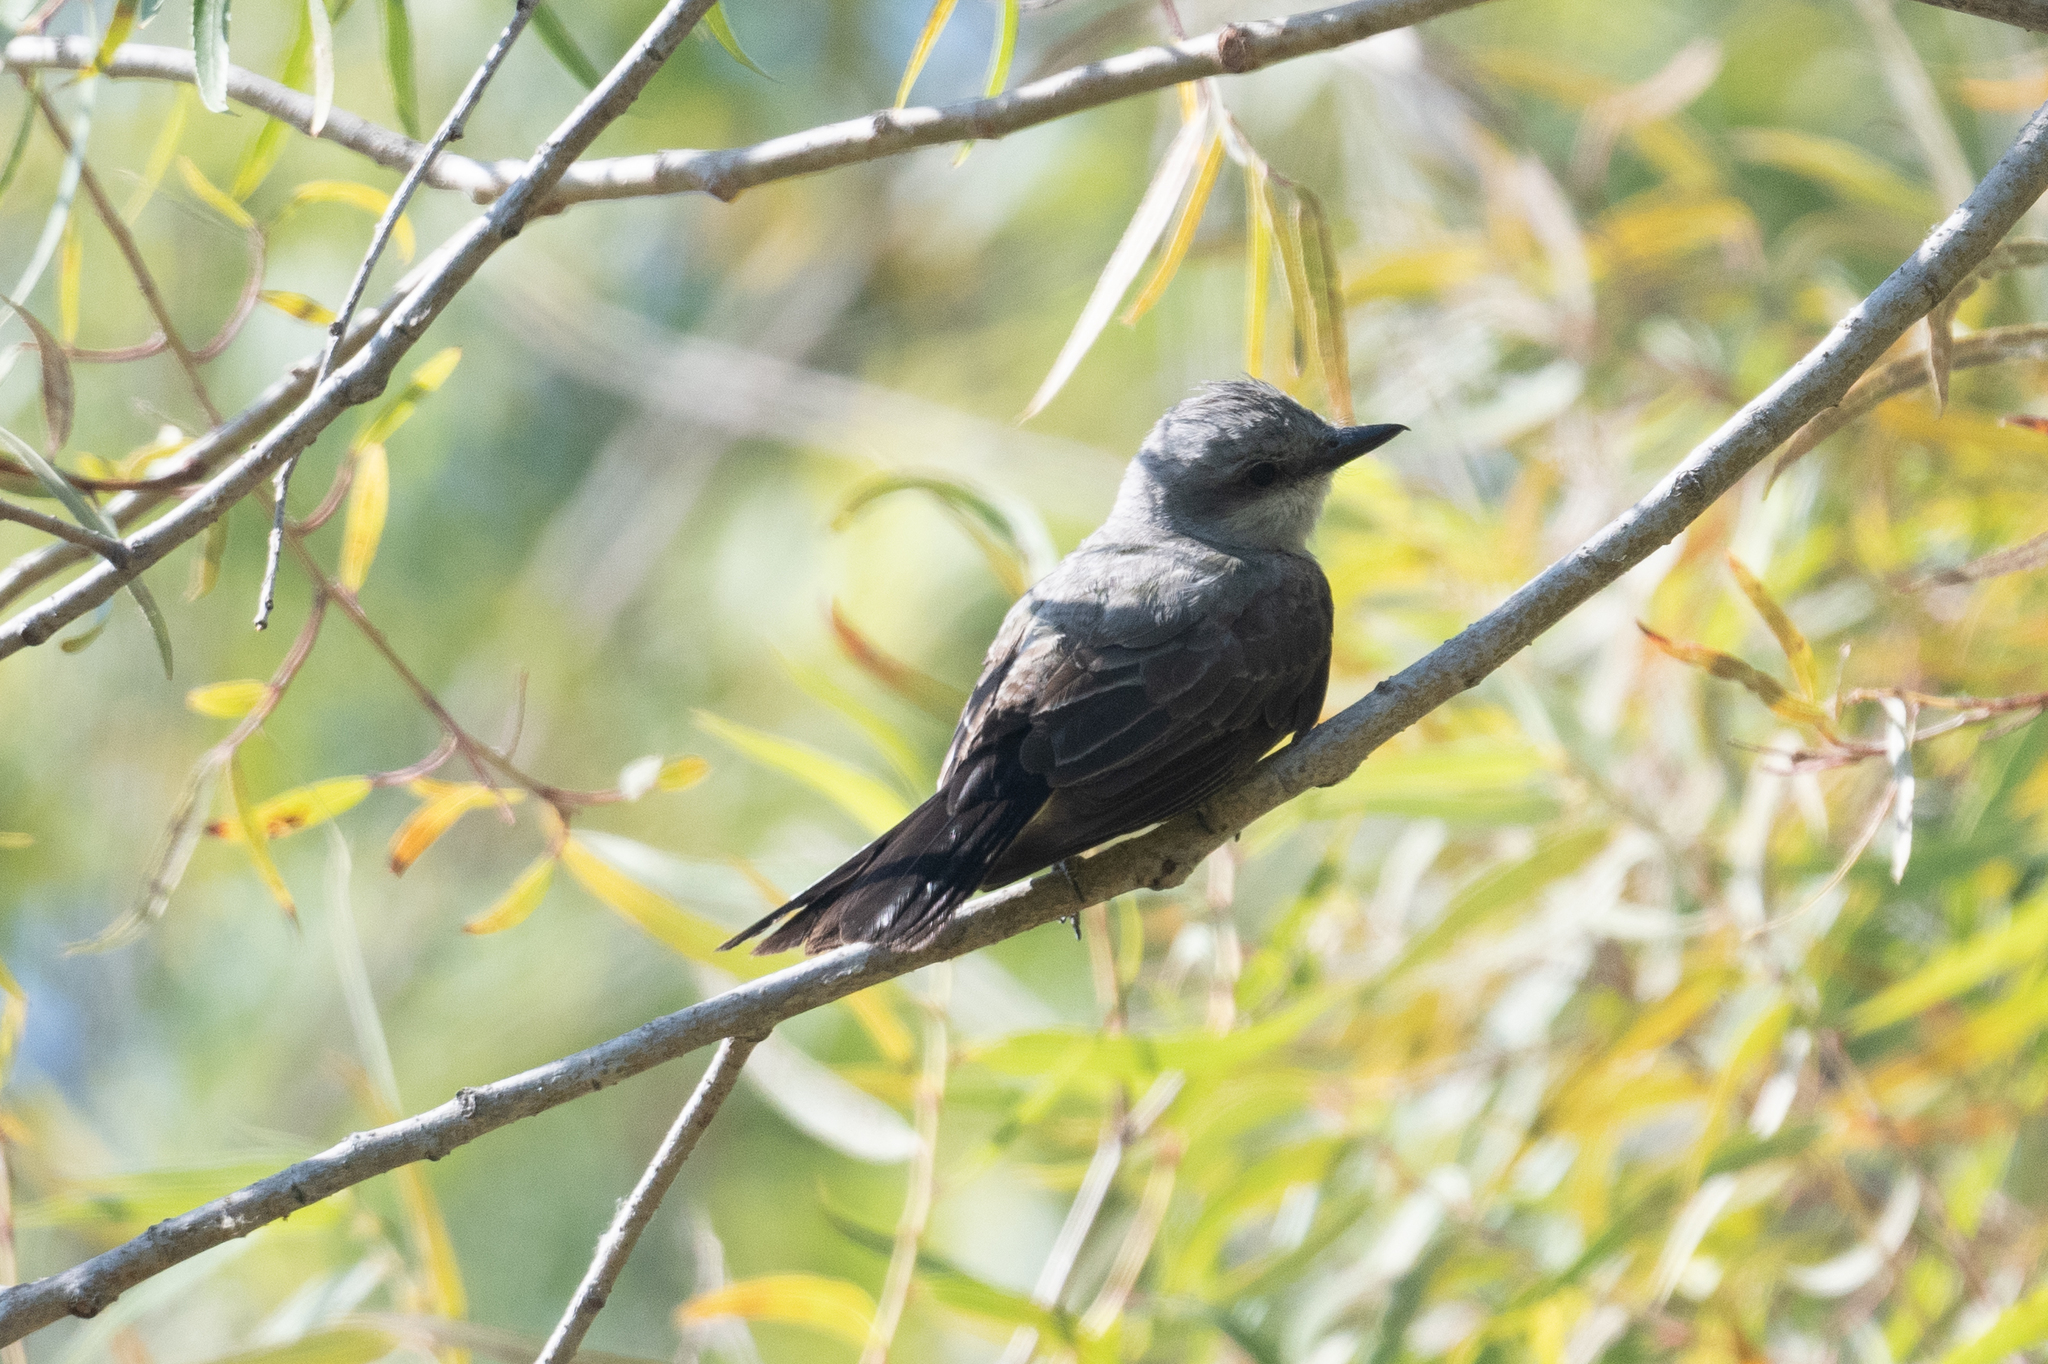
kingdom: Animalia
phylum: Chordata
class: Aves
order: Passeriformes
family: Tyrannidae
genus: Tyrannus
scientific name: Tyrannus verticalis
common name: Western kingbird
